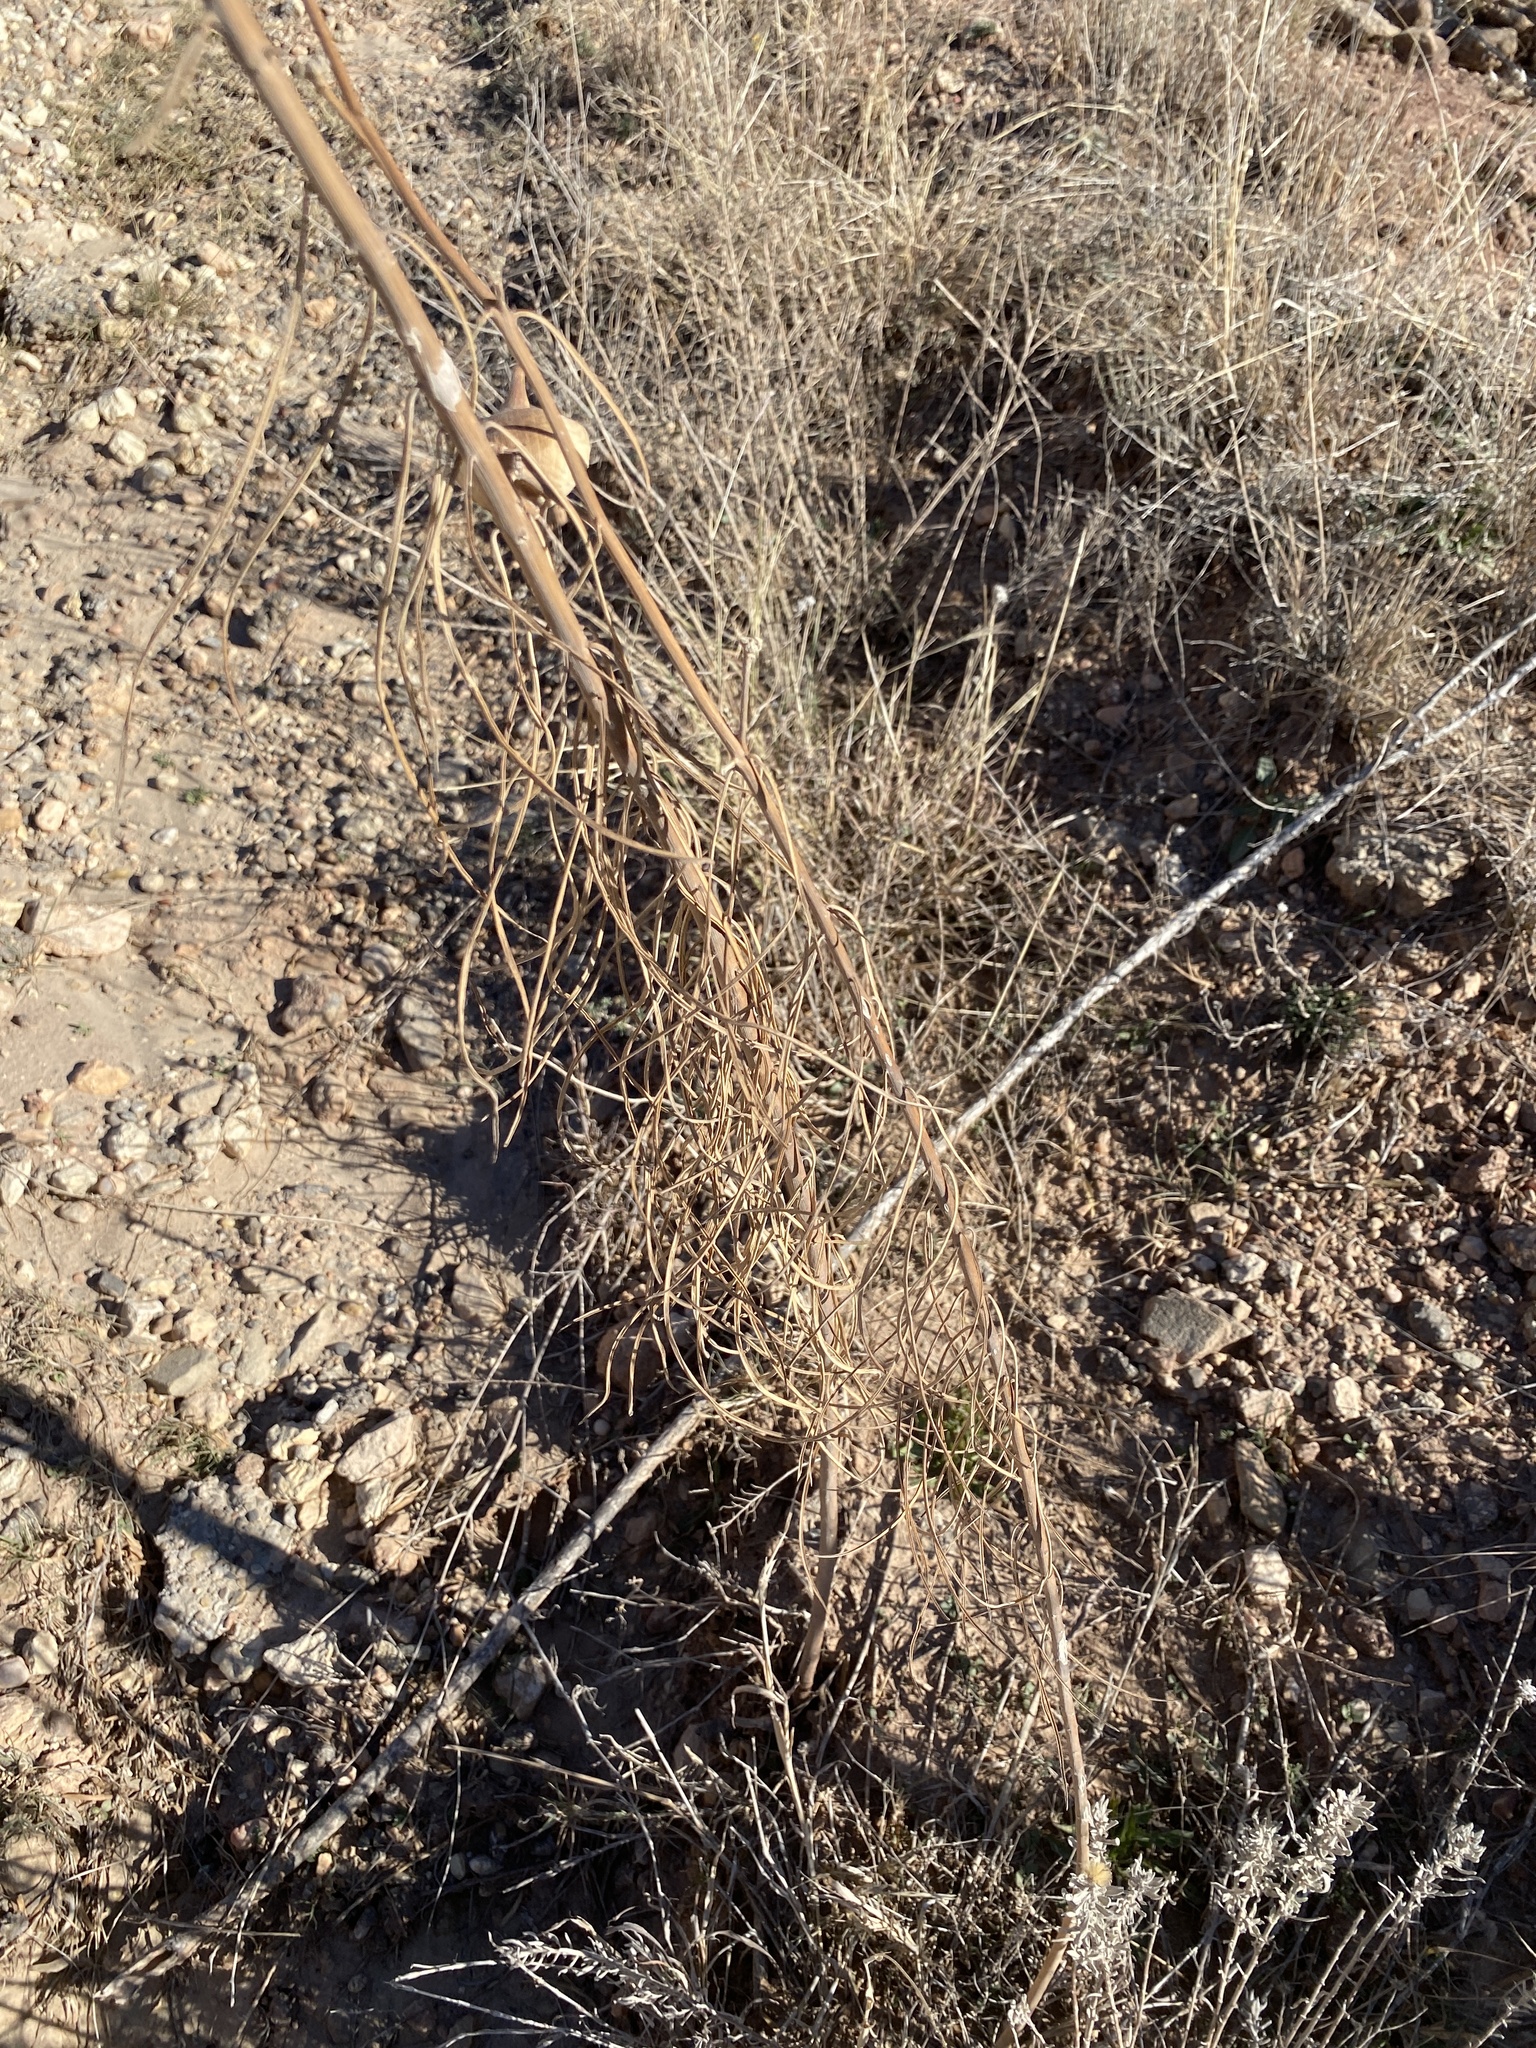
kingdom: Plantae
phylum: Tracheophyta
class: Magnoliopsida
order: Gentianales
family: Apocynaceae
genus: Asclepias
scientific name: Asclepias engelmanniana
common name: Engelmann's milkweed
